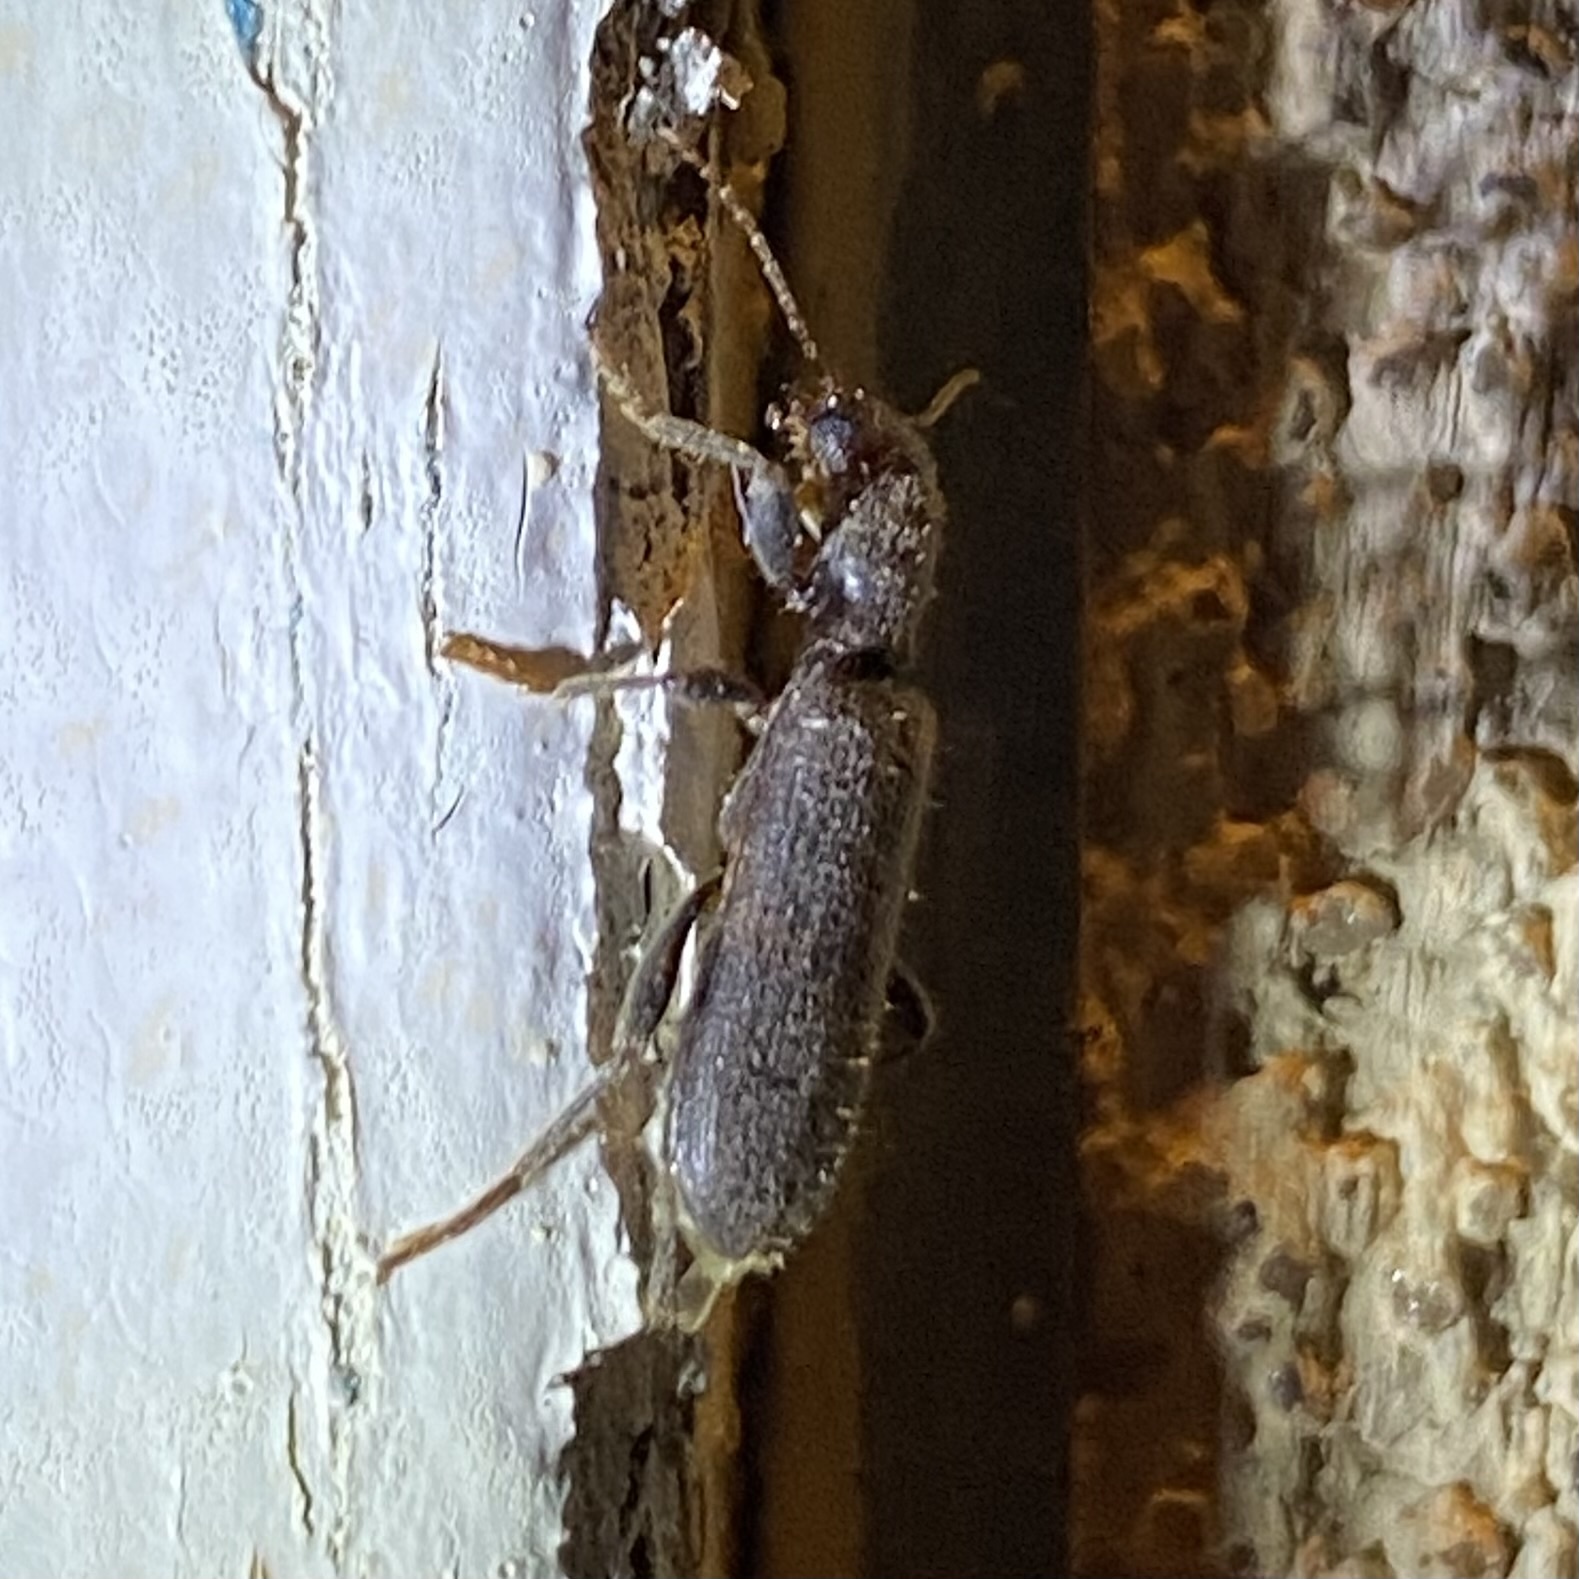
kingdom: Animalia
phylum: Arthropoda
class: Insecta
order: Coleoptera
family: Cleridae
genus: Cymatodera
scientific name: Cymatodera
